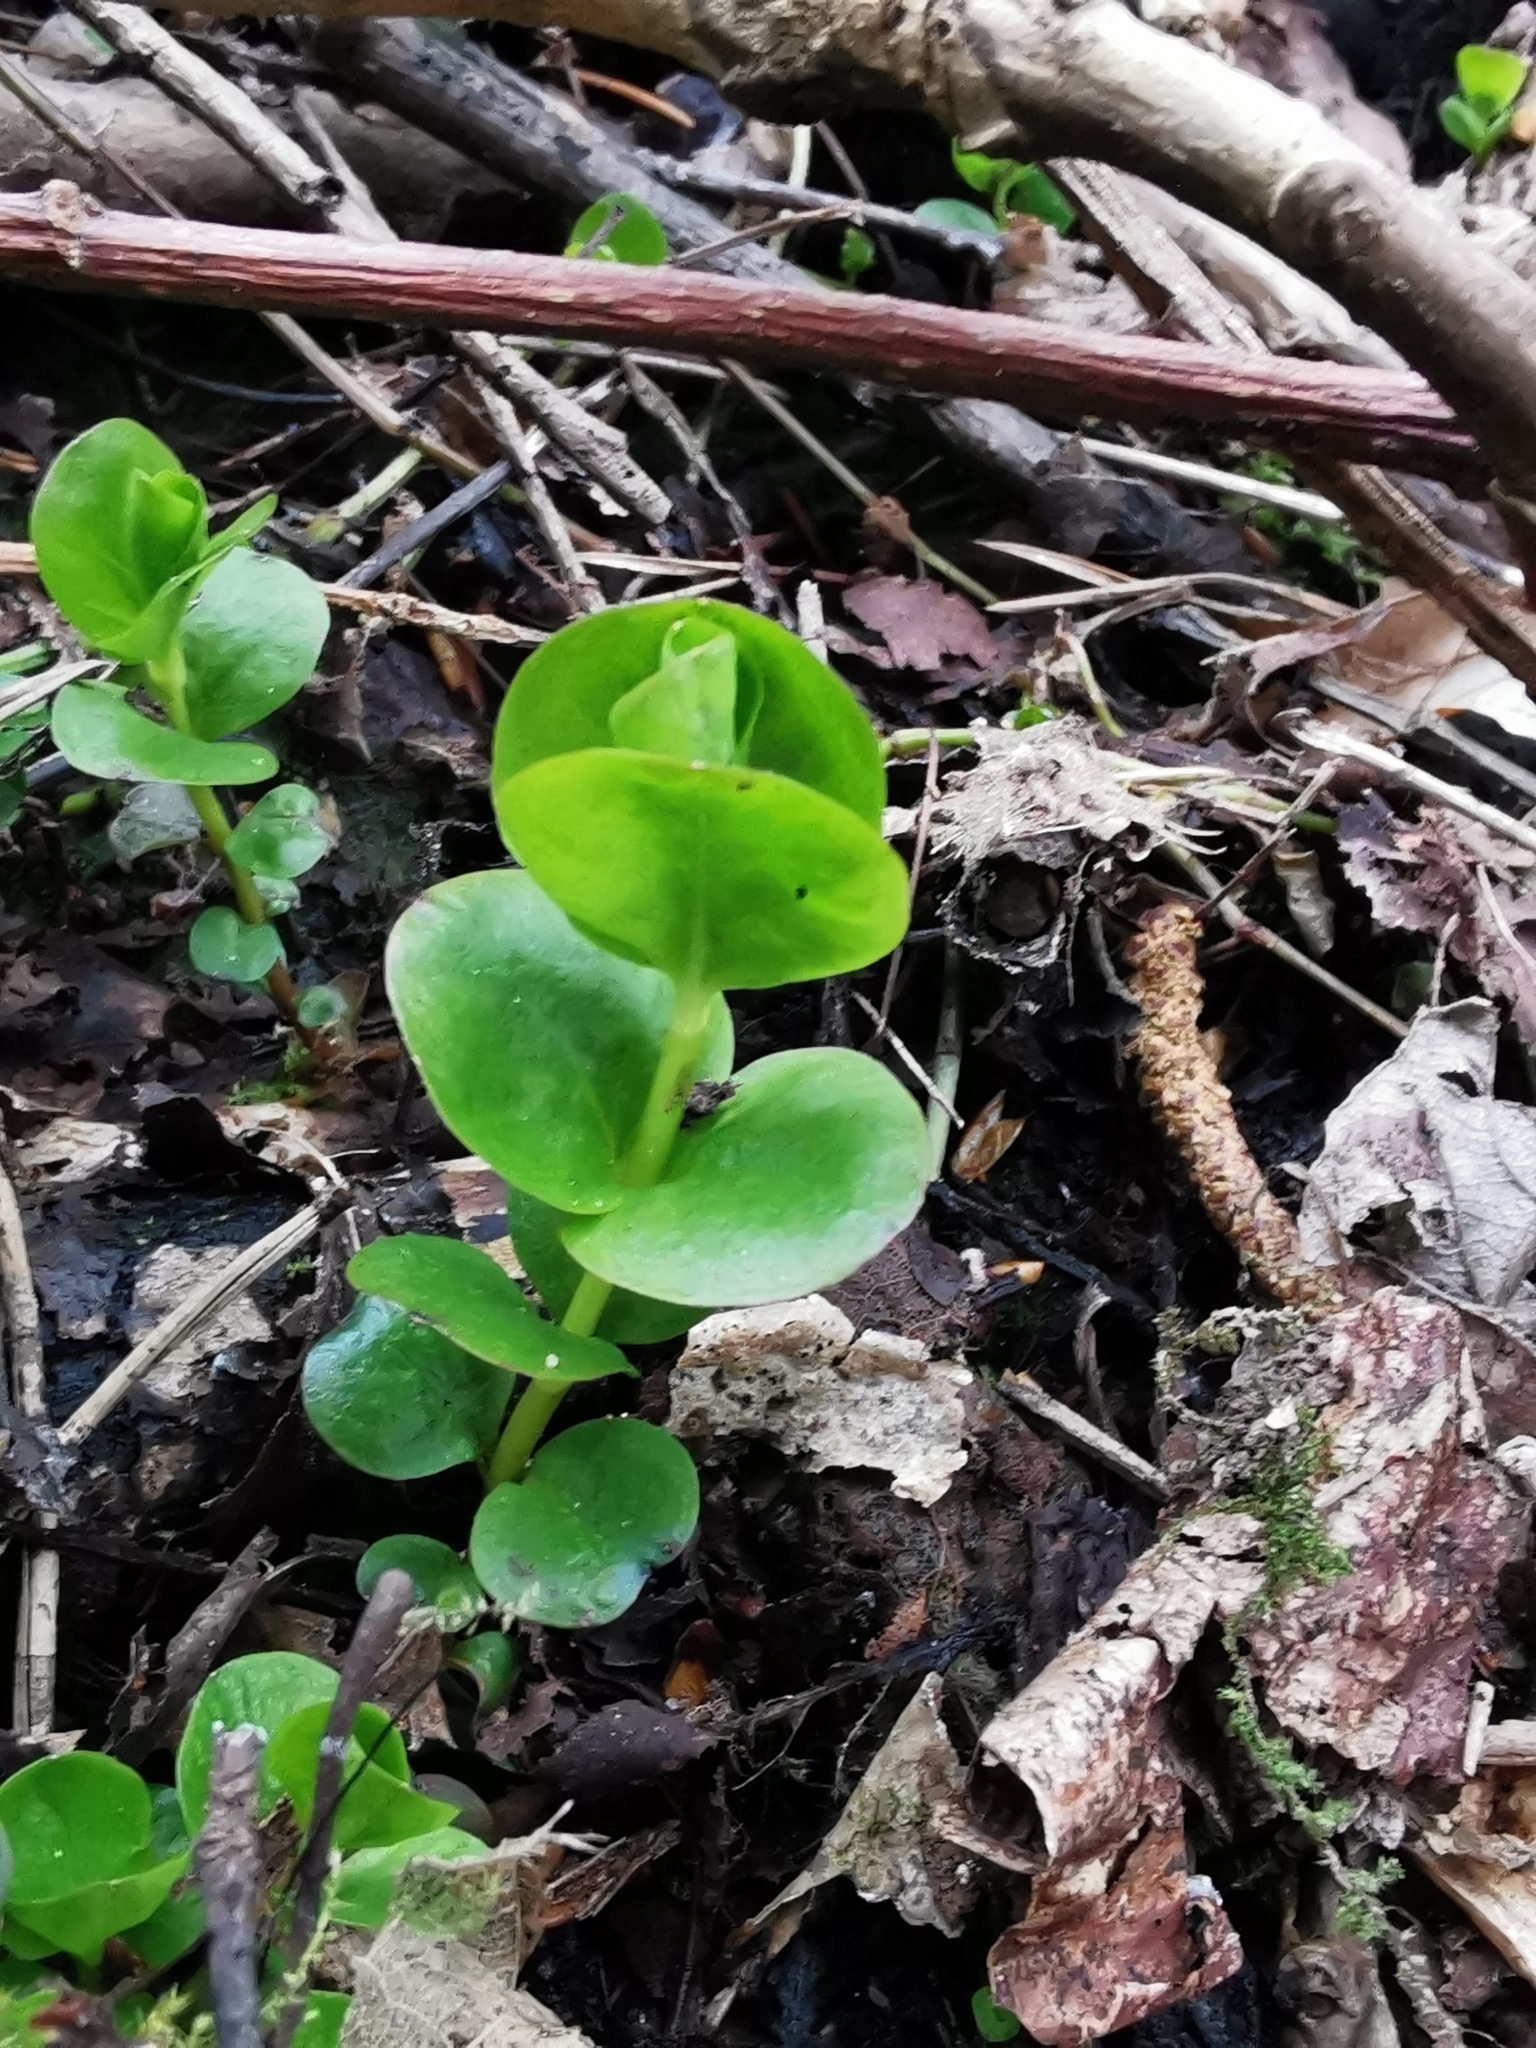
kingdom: Plantae
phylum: Tracheophyta
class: Magnoliopsida
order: Ericales
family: Primulaceae
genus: Lysimachia
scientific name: Lysimachia nummularia
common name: Moneywort
